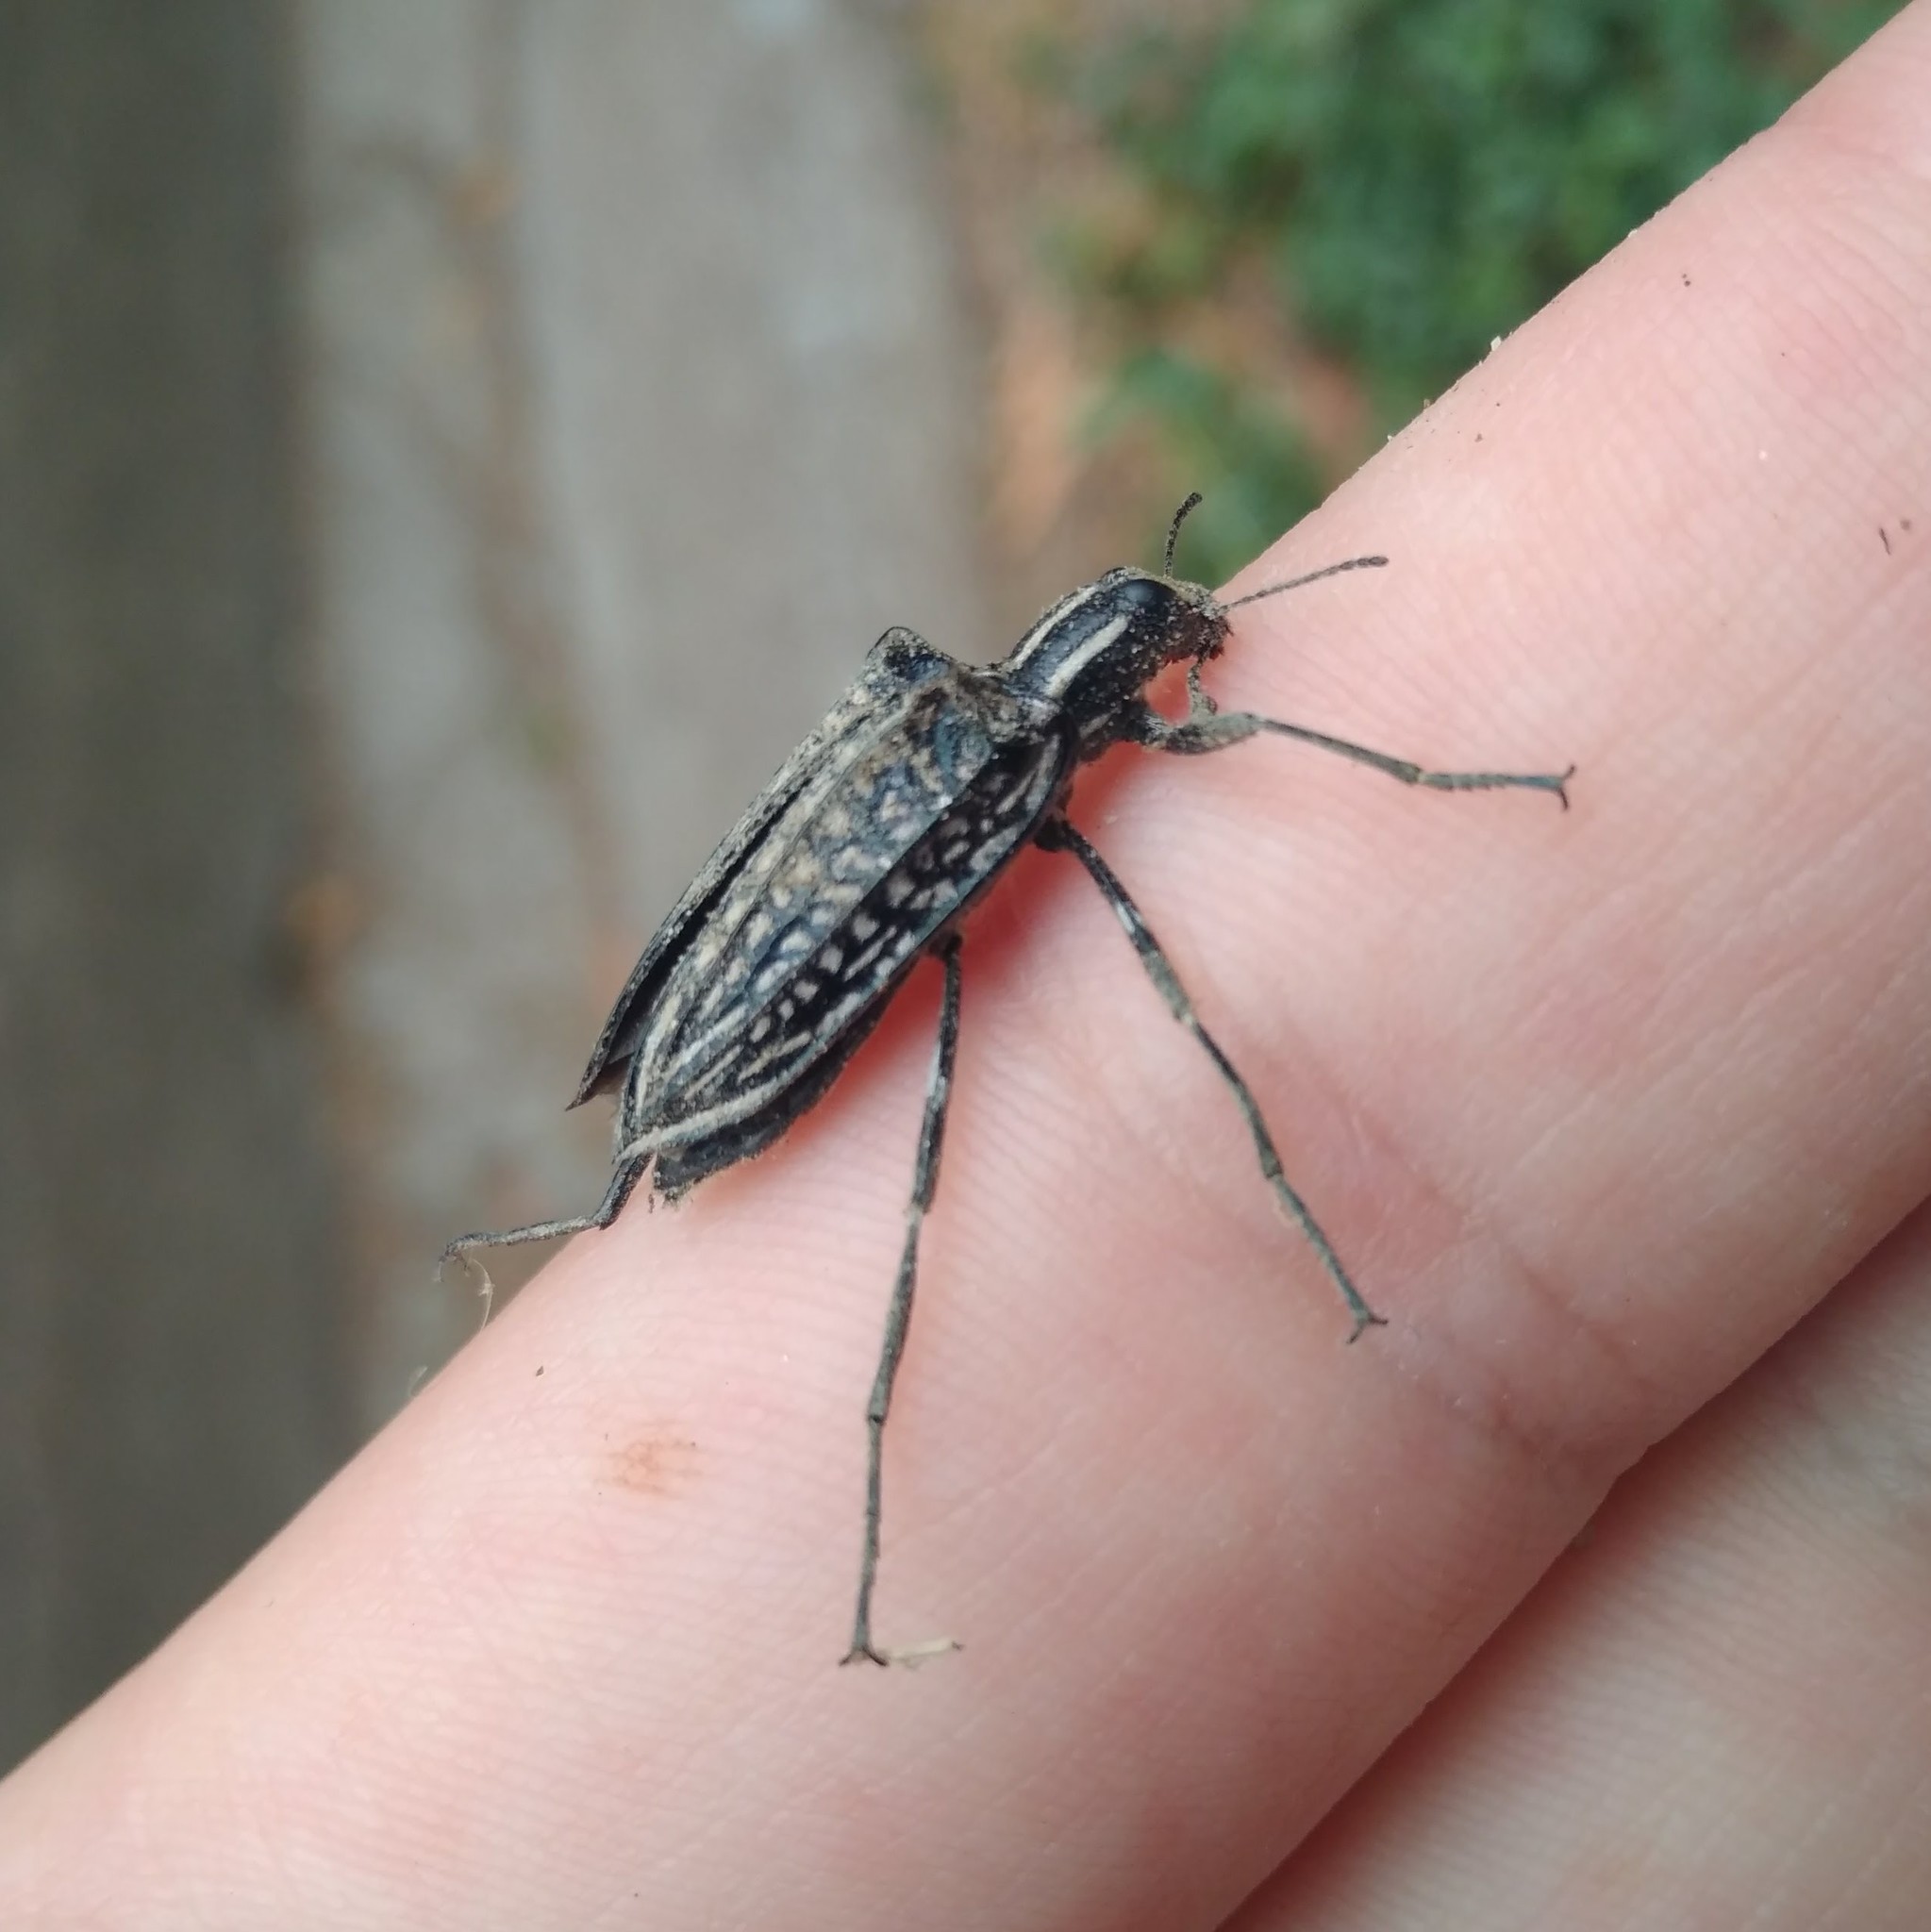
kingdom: Animalia
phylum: Arthropoda
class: Insecta
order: Coleoptera
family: Tenebrionidae
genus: Homocyrtus
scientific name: Homocyrtus
